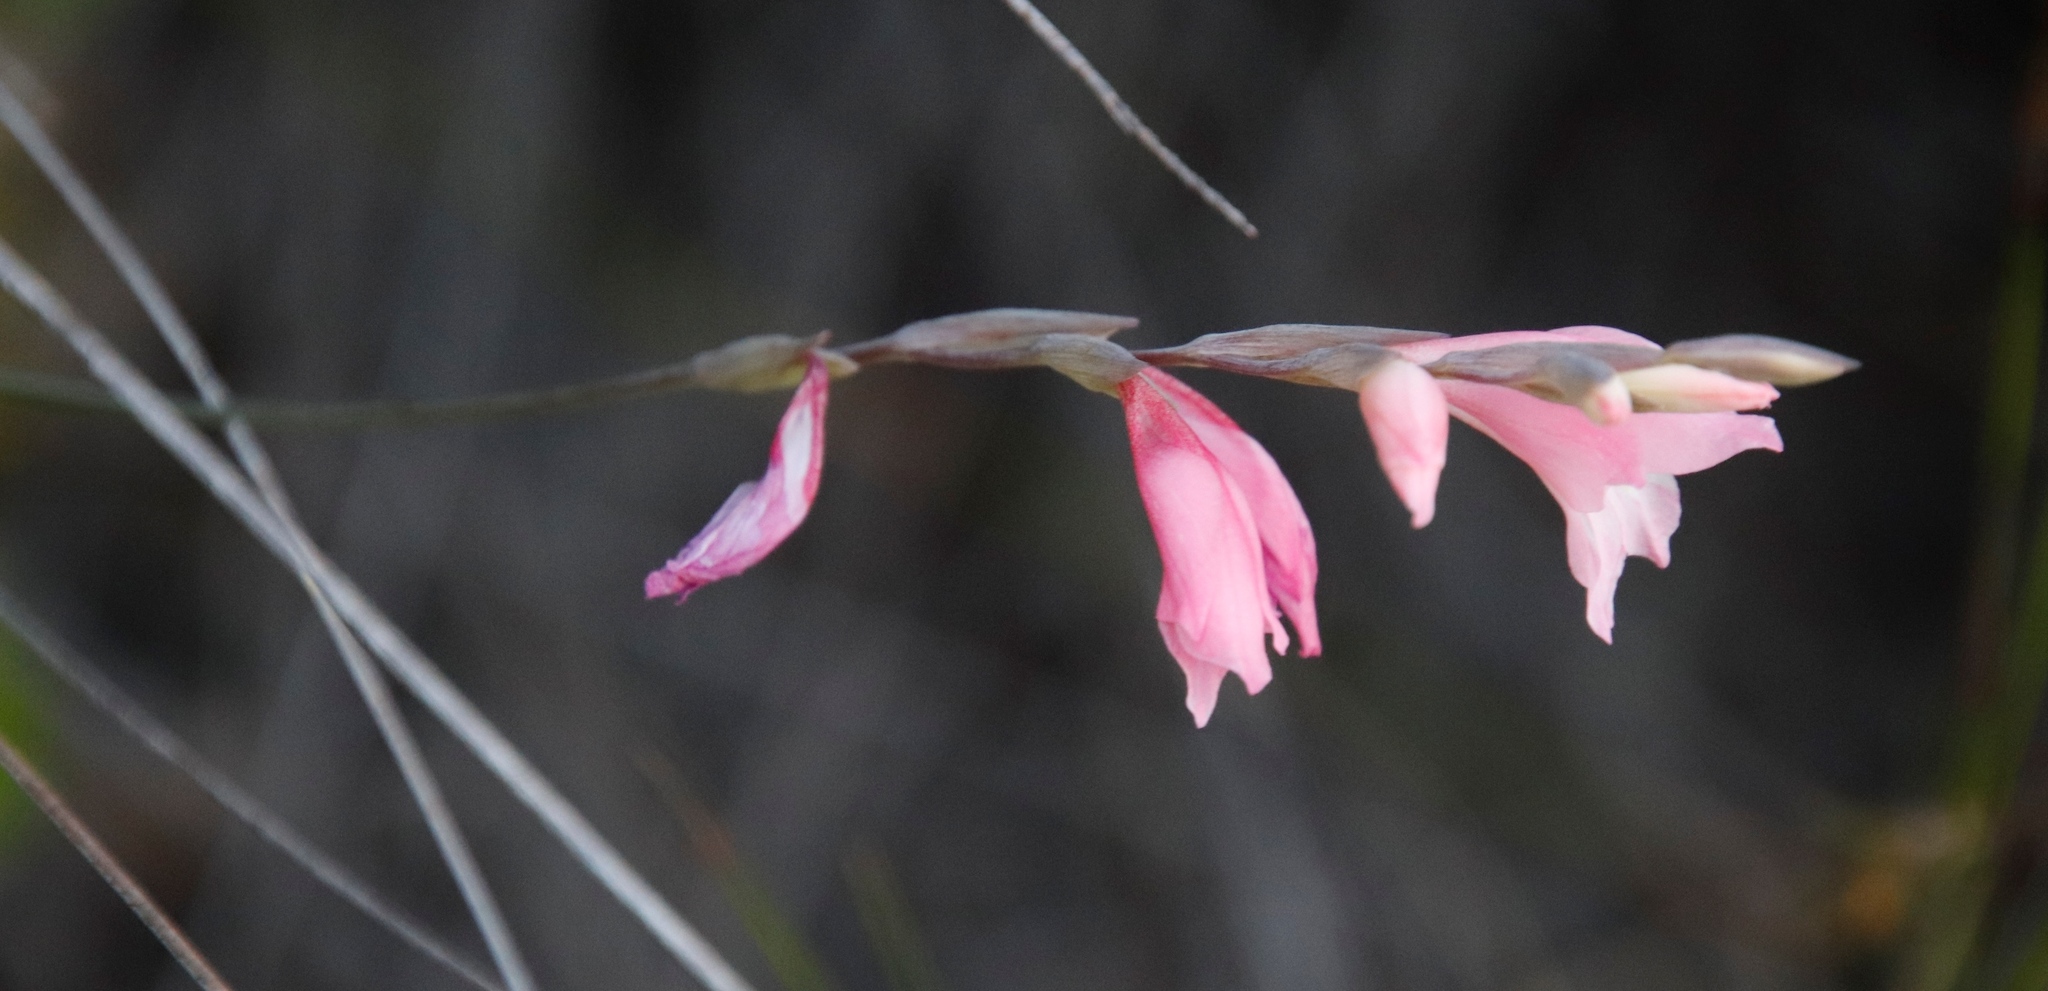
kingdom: Plantae
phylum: Tracheophyta
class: Liliopsida
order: Asparagales
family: Iridaceae
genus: Gladiolus
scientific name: Gladiolus brevifolius
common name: March pypie
